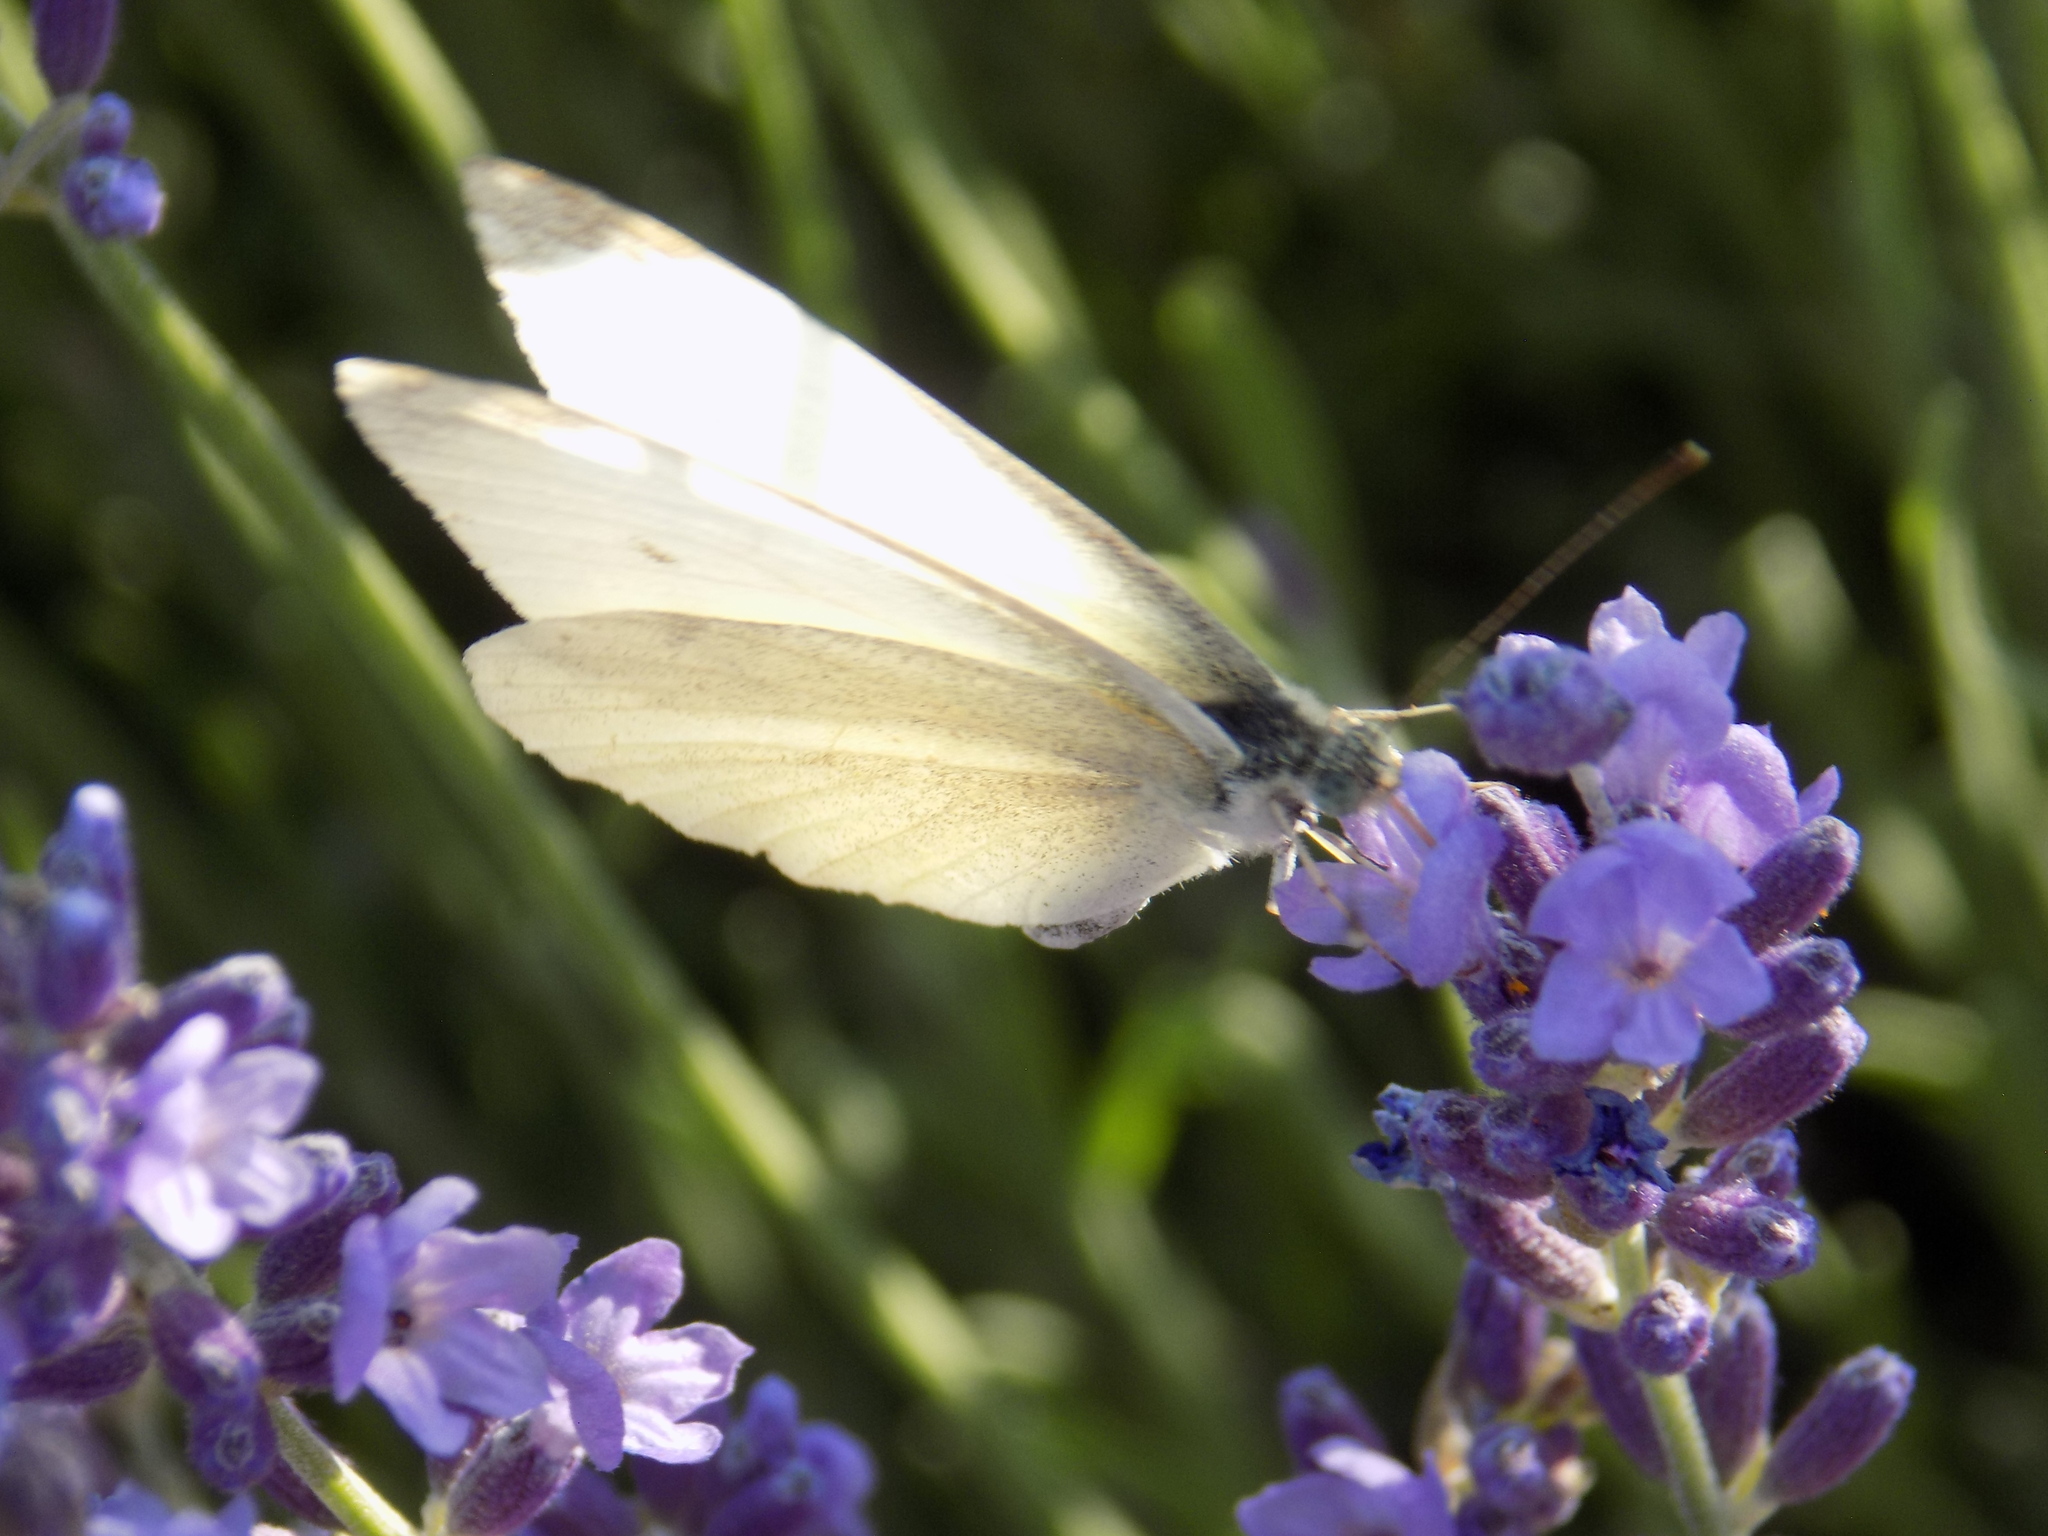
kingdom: Animalia
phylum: Arthropoda
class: Insecta
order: Lepidoptera
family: Pieridae
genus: Pieris
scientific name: Pieris rapae
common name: Small white
